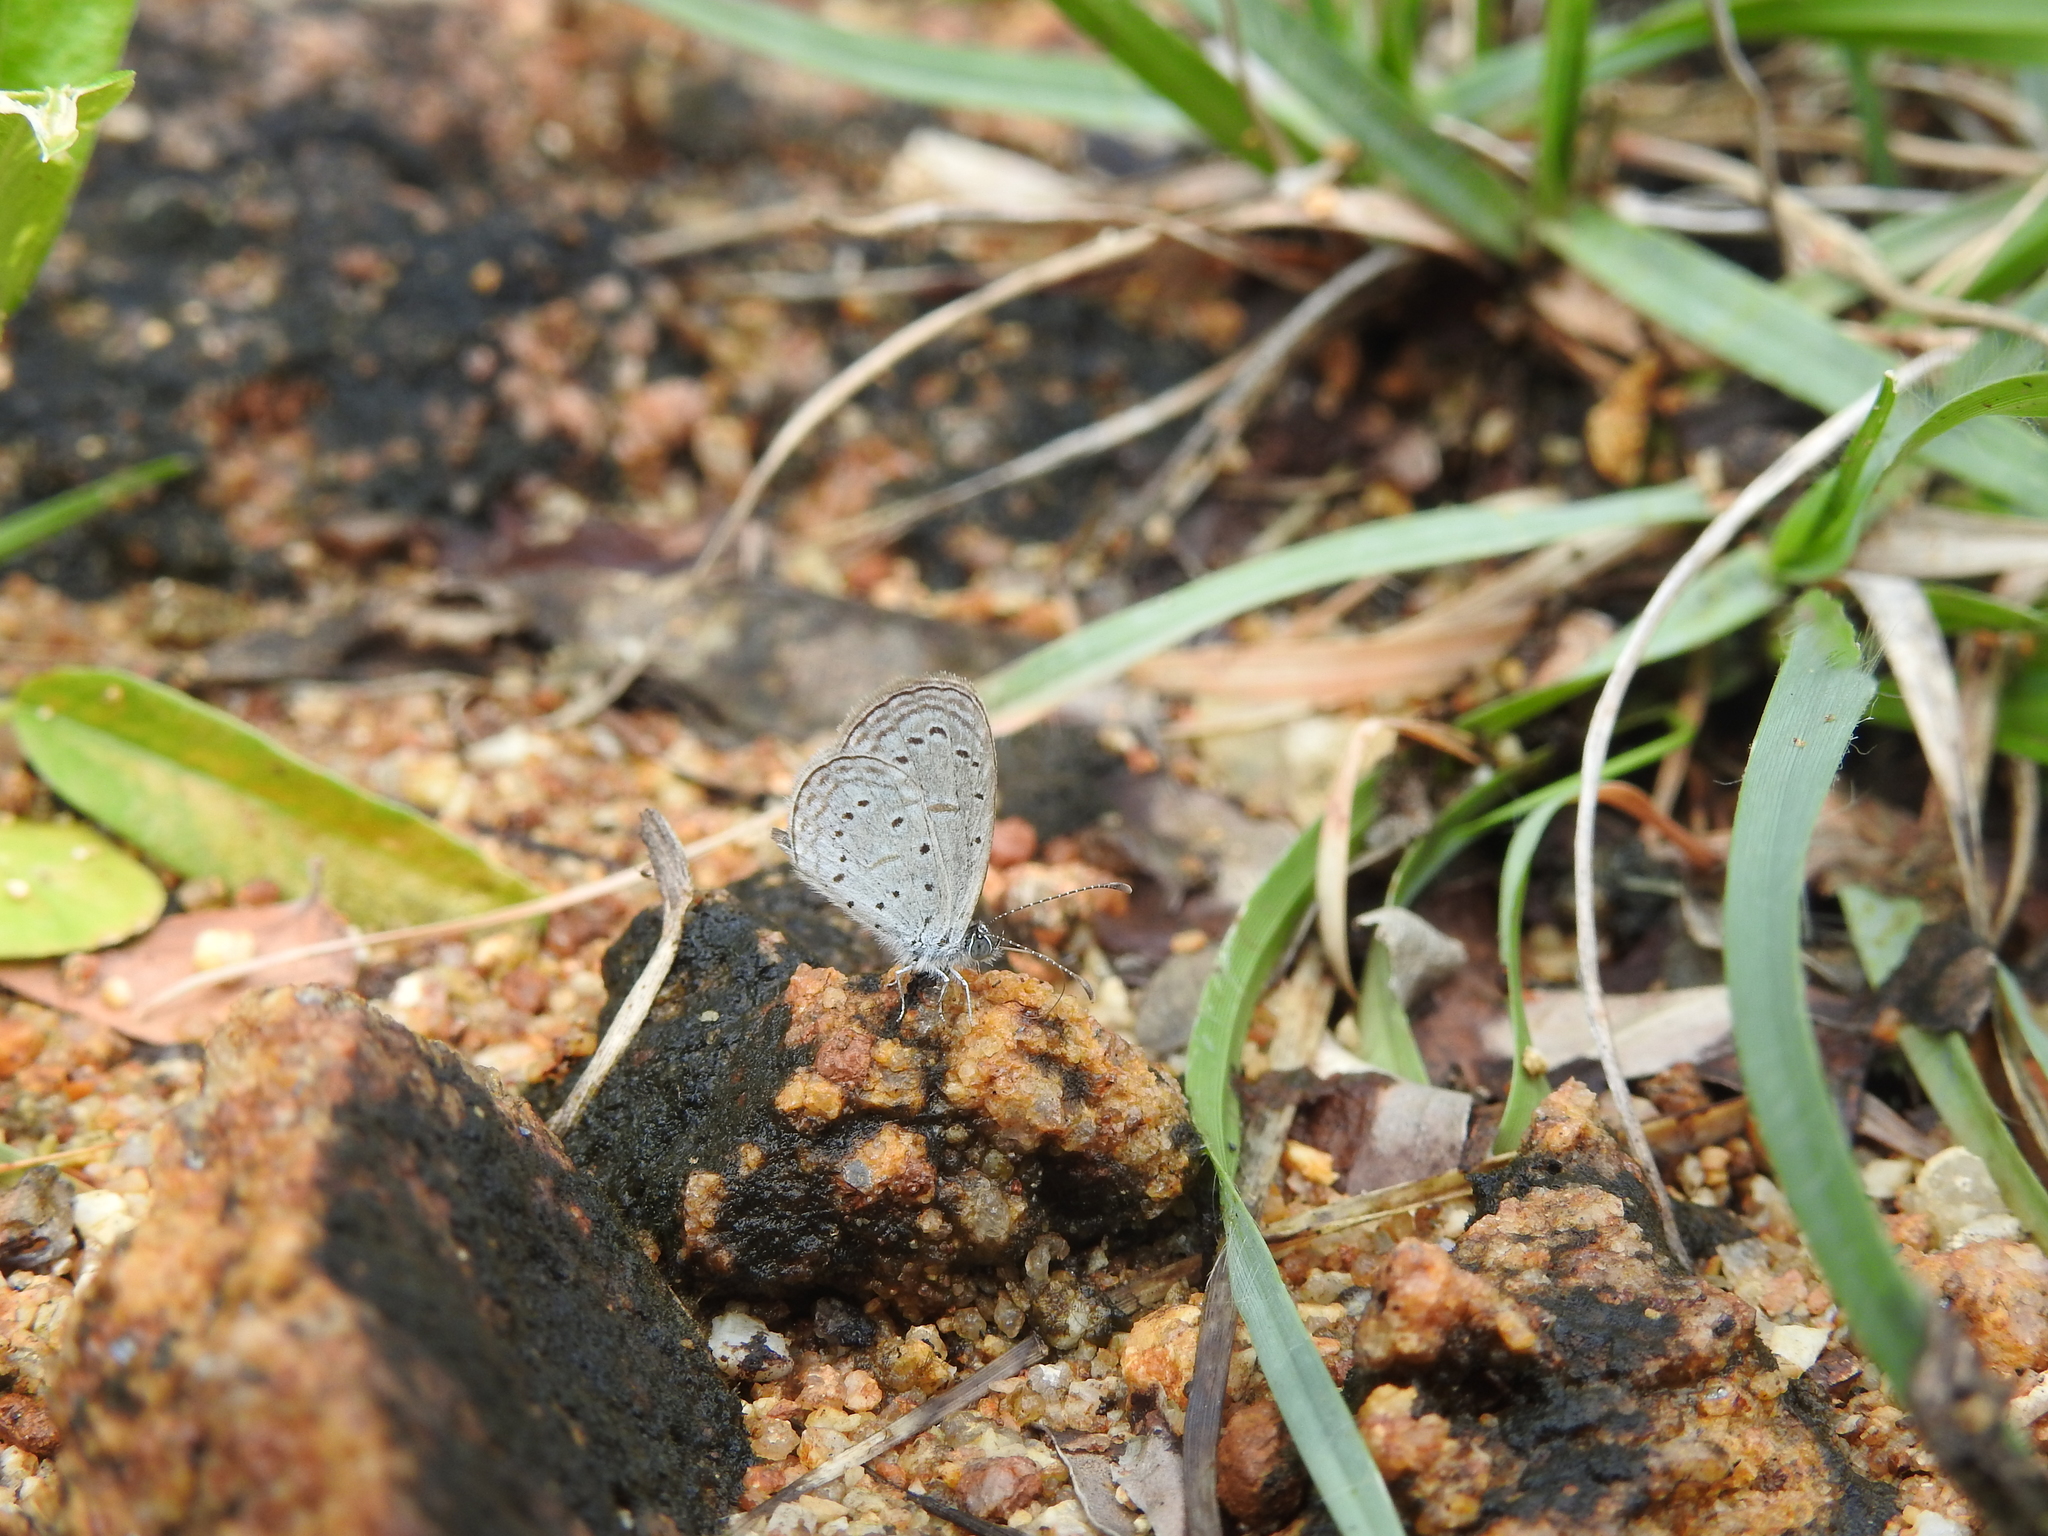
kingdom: Animalia
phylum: Arthropoda
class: Insecta
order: Lepidoptera
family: Lycaenidae
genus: Zizula
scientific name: Zizula hylax
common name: Gaika blue
